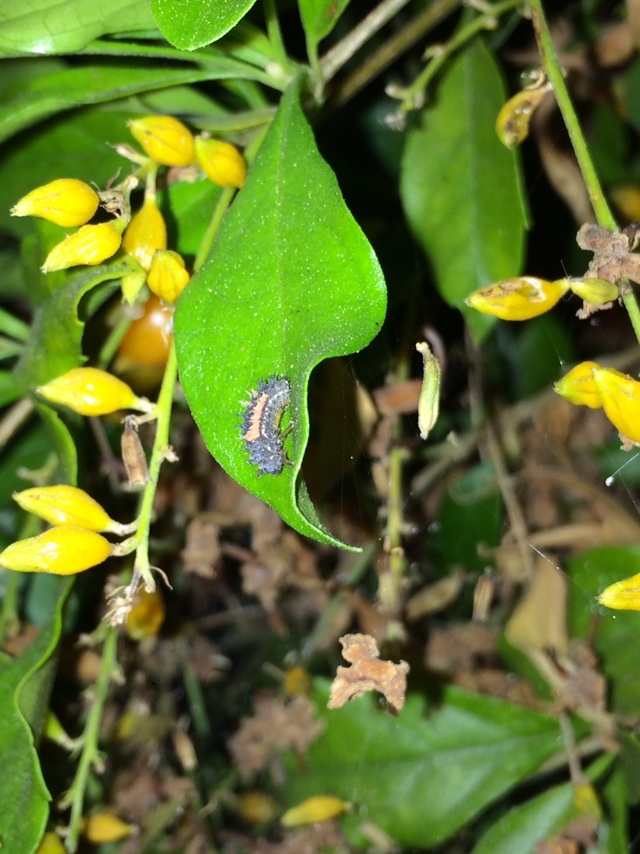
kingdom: Animalia
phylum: Arthropoda
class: Insecta
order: Coleoptera
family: Coccinellidae
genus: Harmonia
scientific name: Harmonia axyridis
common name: Harlequin ladybird
